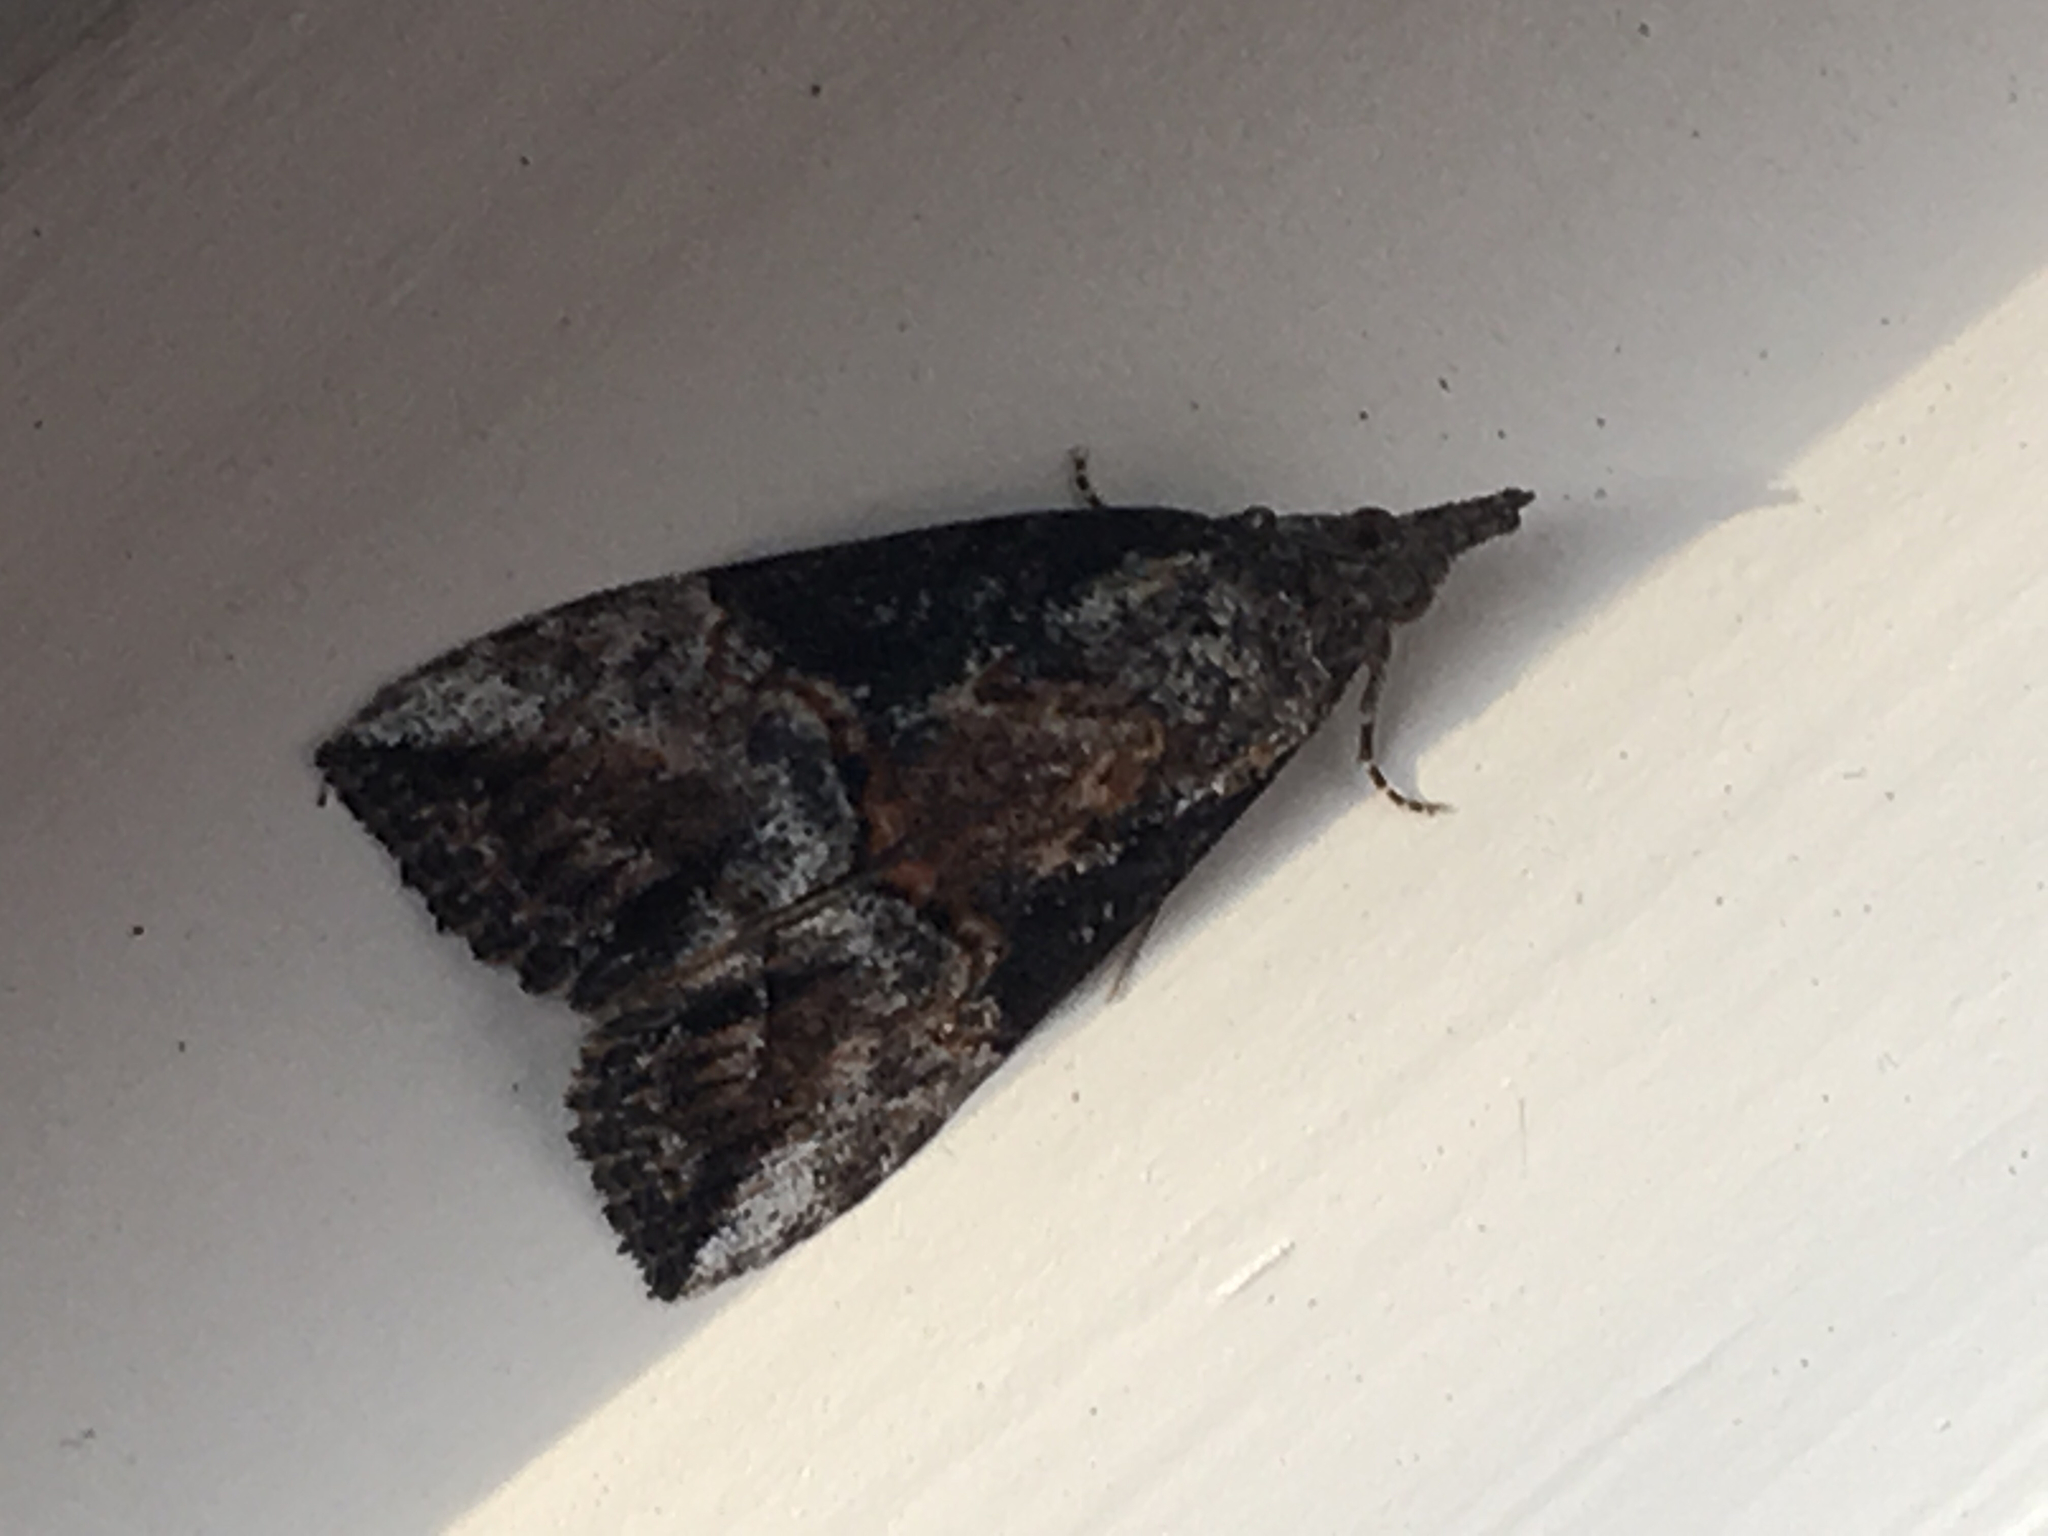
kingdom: Animalia
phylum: Arthropoda
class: Insecta
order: Lepidoptera
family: Erebidae
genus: Hypena
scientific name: Hypena scabra
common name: Green cloverworm
